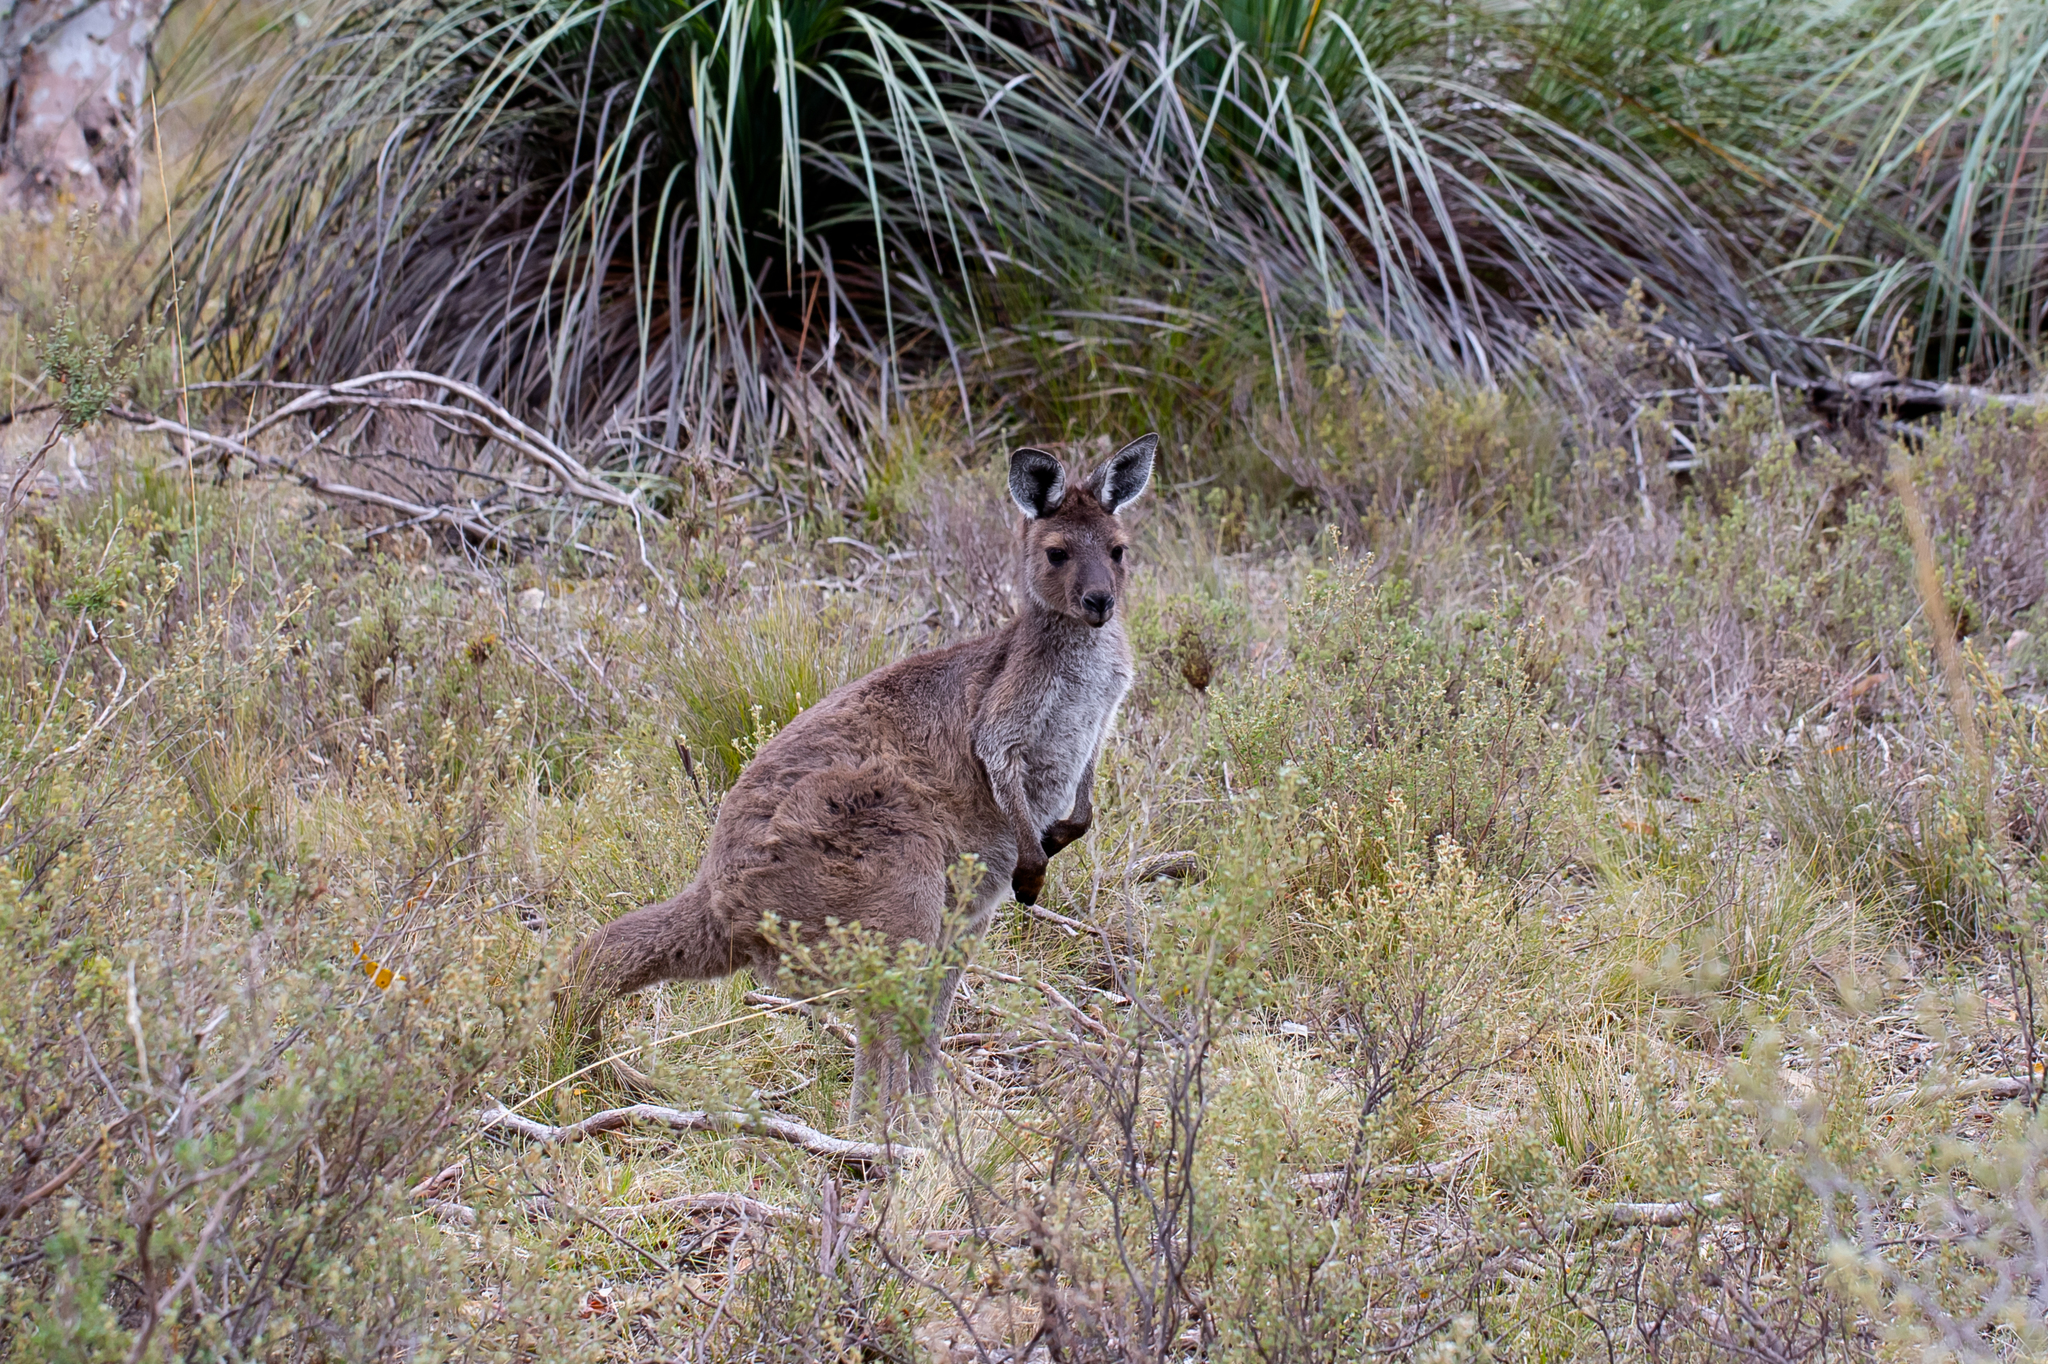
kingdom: Animalia
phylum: Chordata
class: Mammalia
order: Diprotodontia
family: Macropodidae
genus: Macropus
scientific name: Macropus fuliginosus
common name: Western grey kangaroo
